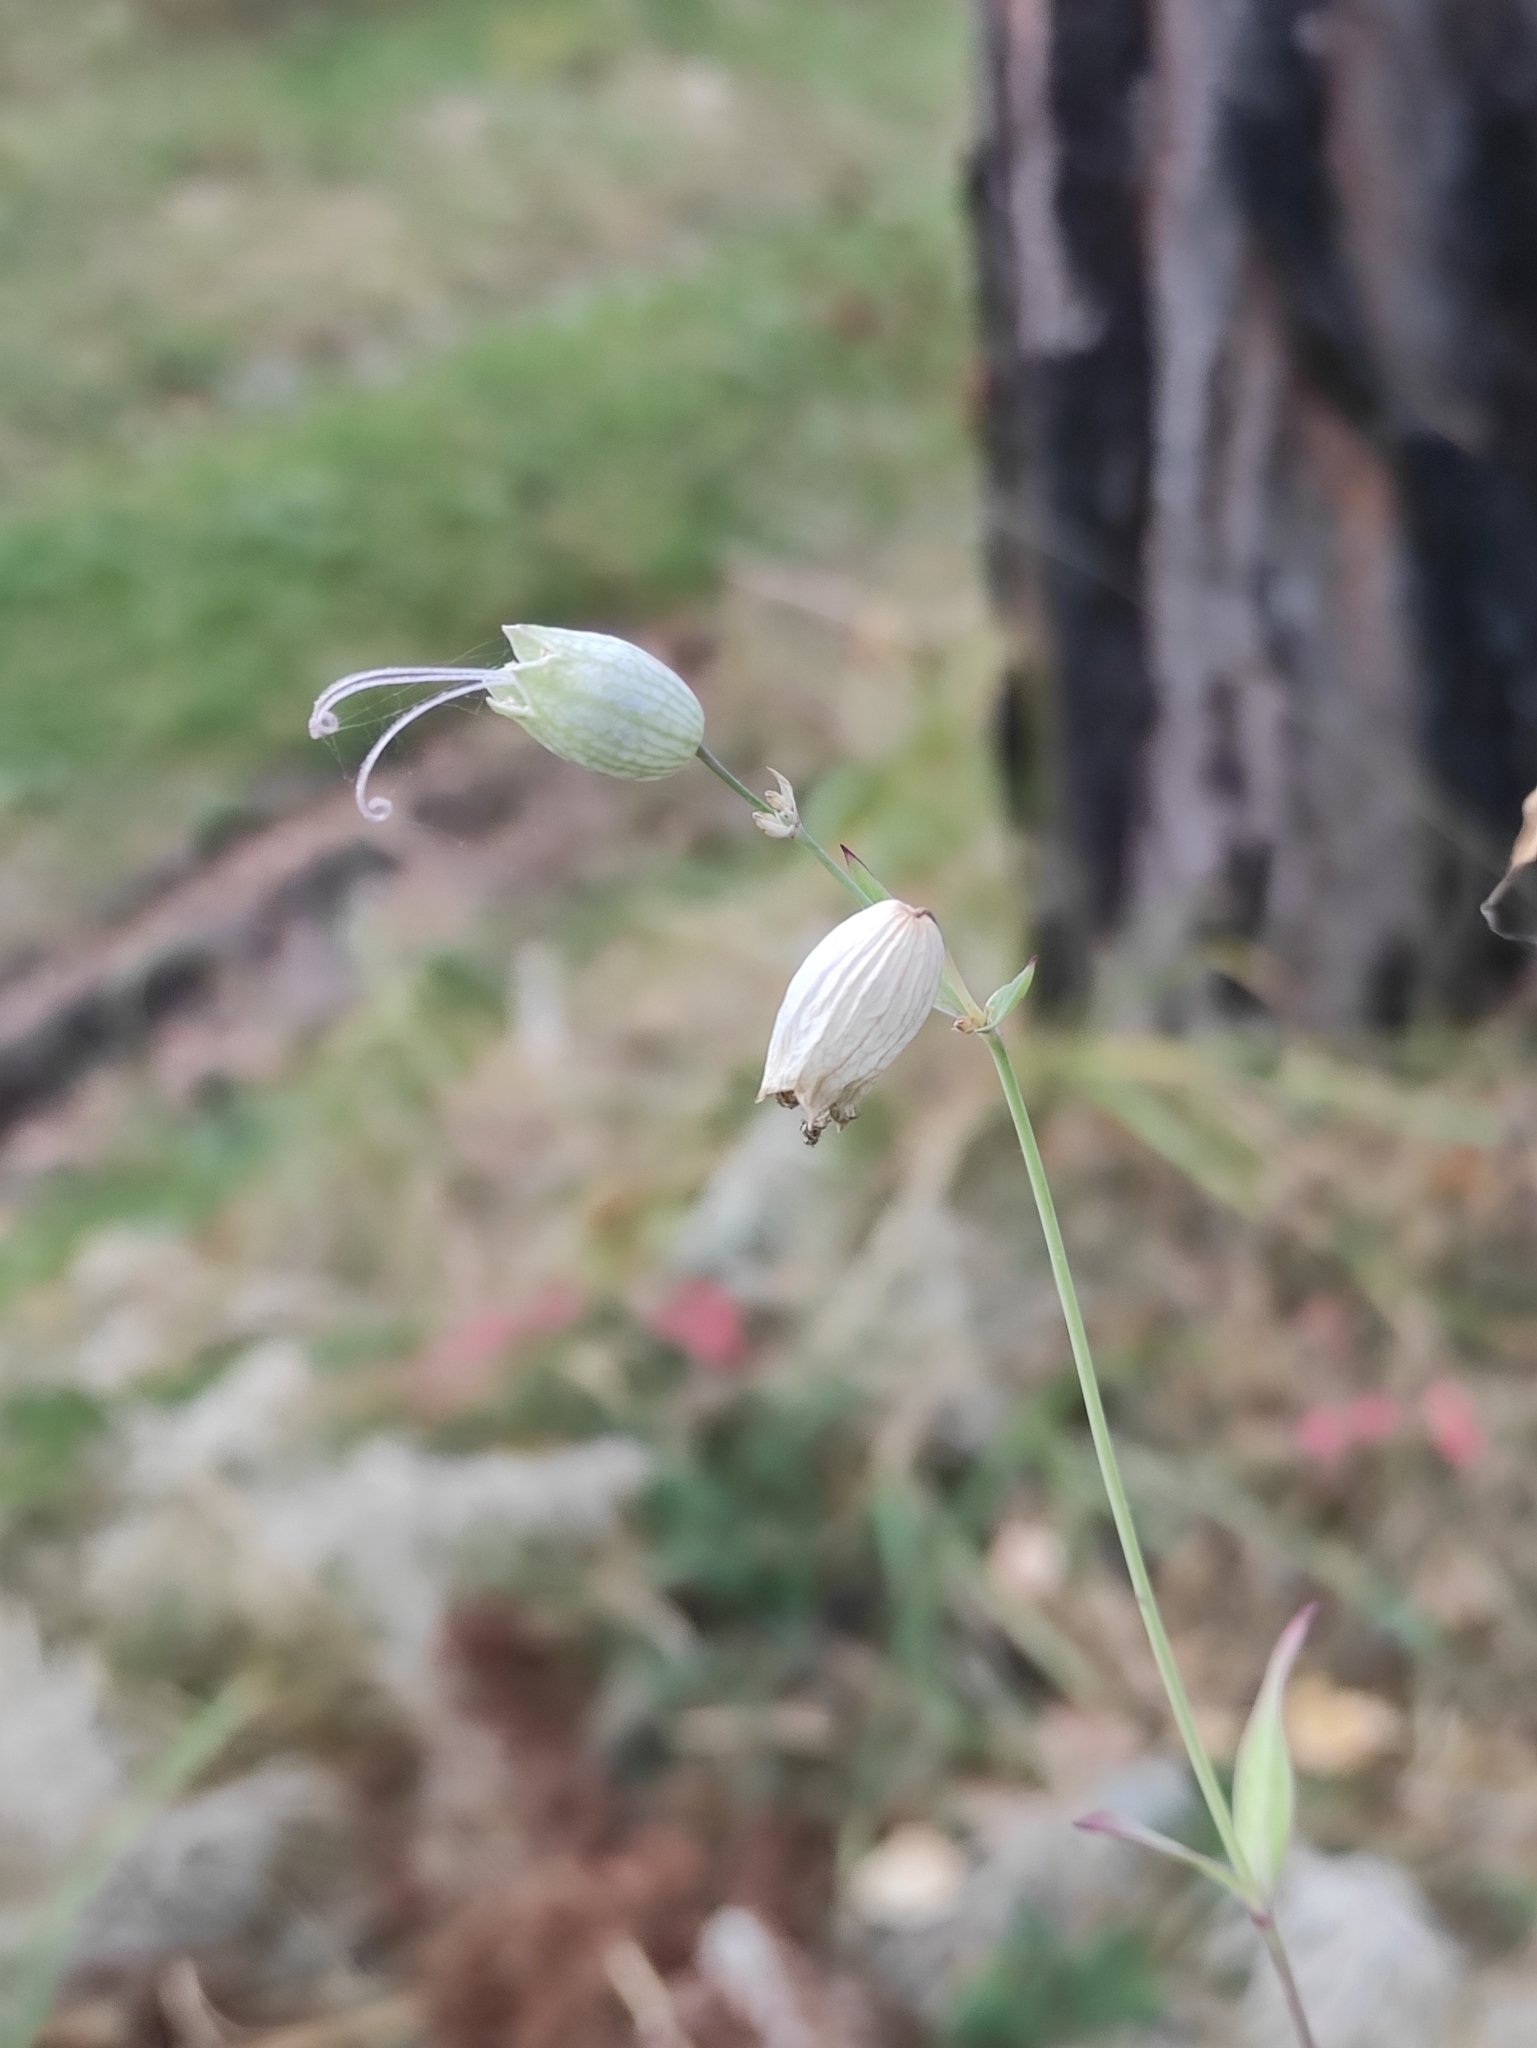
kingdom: Plantae
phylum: Tracheophyta
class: Magnoliopsida
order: Caryophyllales
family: Caryophyllaceae
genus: Silene
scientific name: Silene vulgaris
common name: Bladder campion
